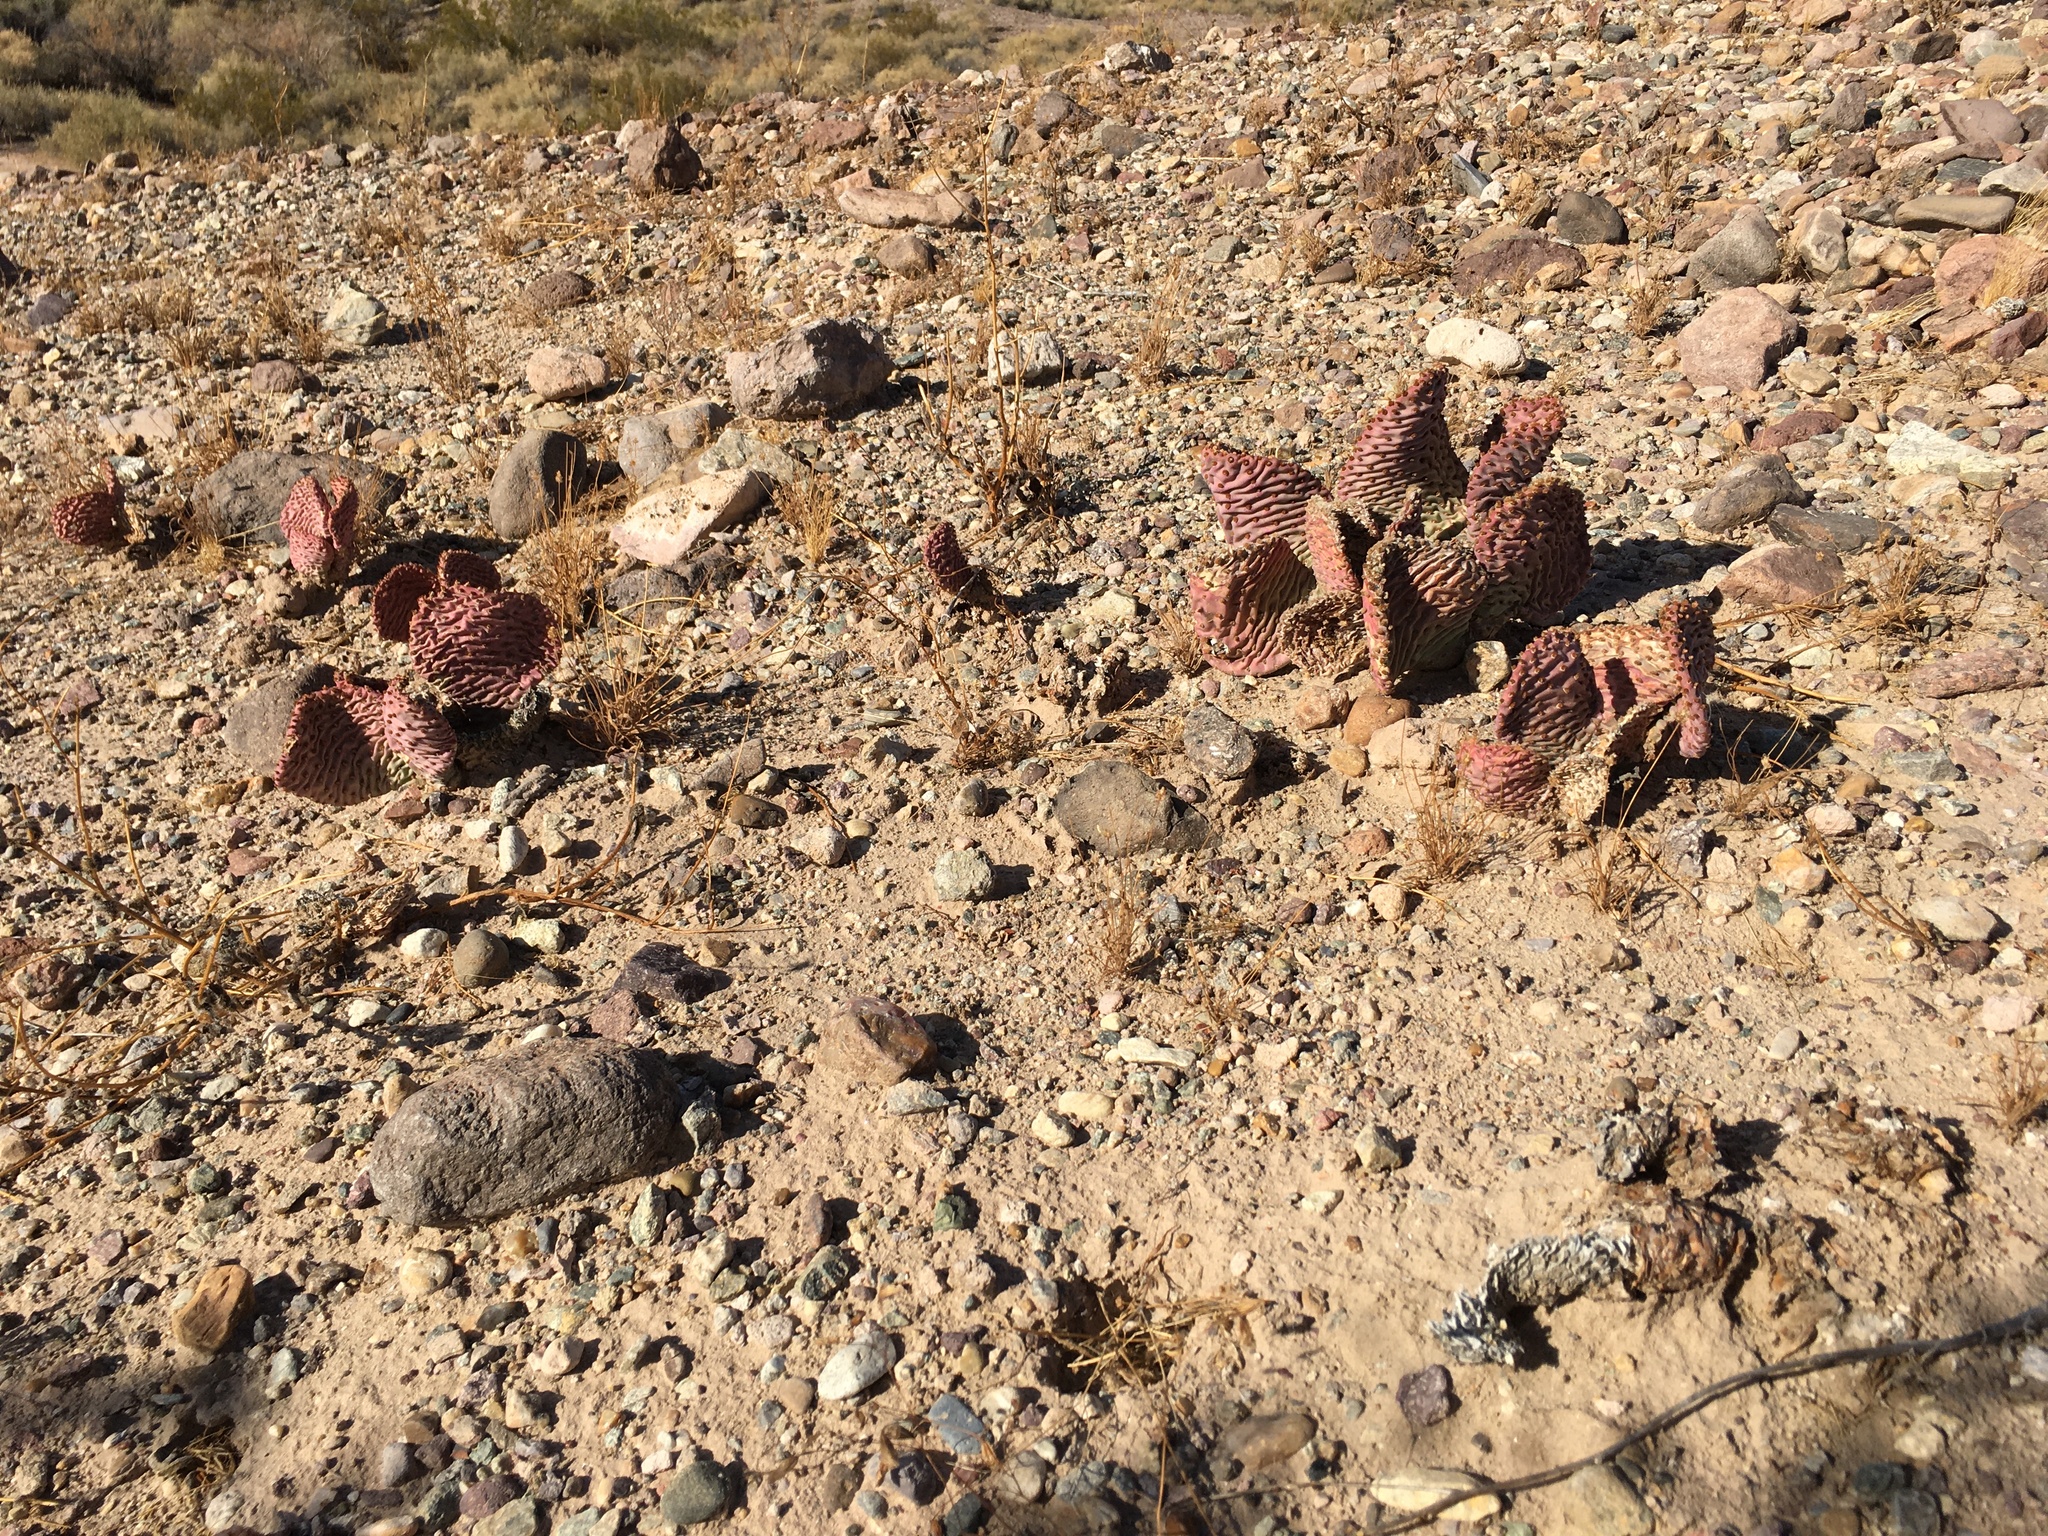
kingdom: Plantae
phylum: Tracheophyta
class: Magnoliopsida
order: Caryophyllales
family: Cactaceae
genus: Opuntia
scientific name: Opuntia basilaris
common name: Beavertail prickly-pear
